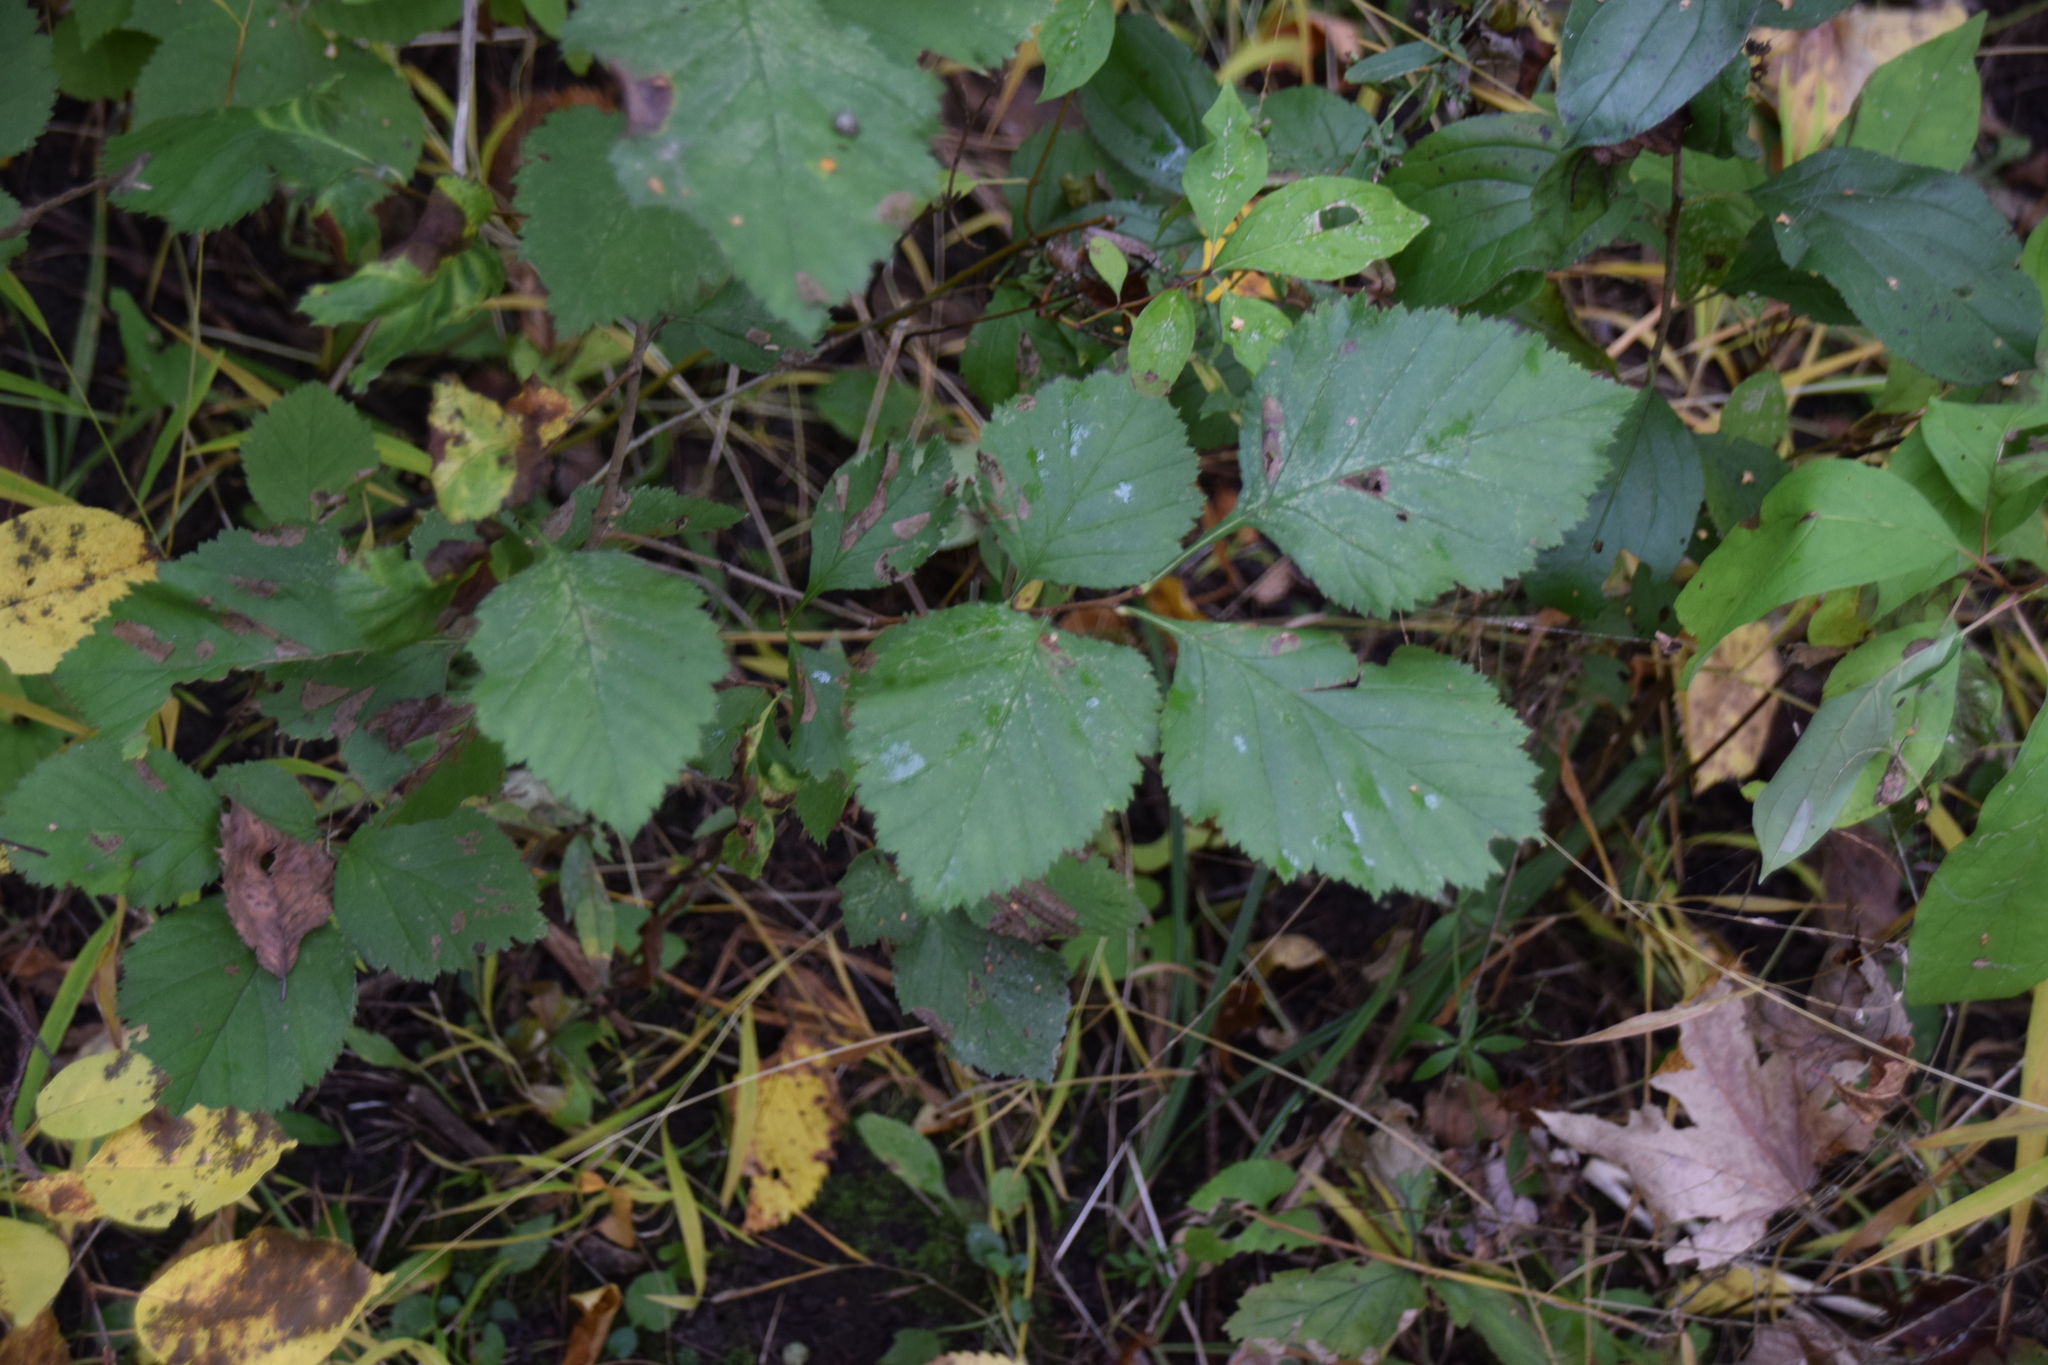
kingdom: Plantae
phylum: Tracheophyta
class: Magnoliopsida
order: Rosales
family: Rosaceae
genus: Crataegus
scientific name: Crataegus
